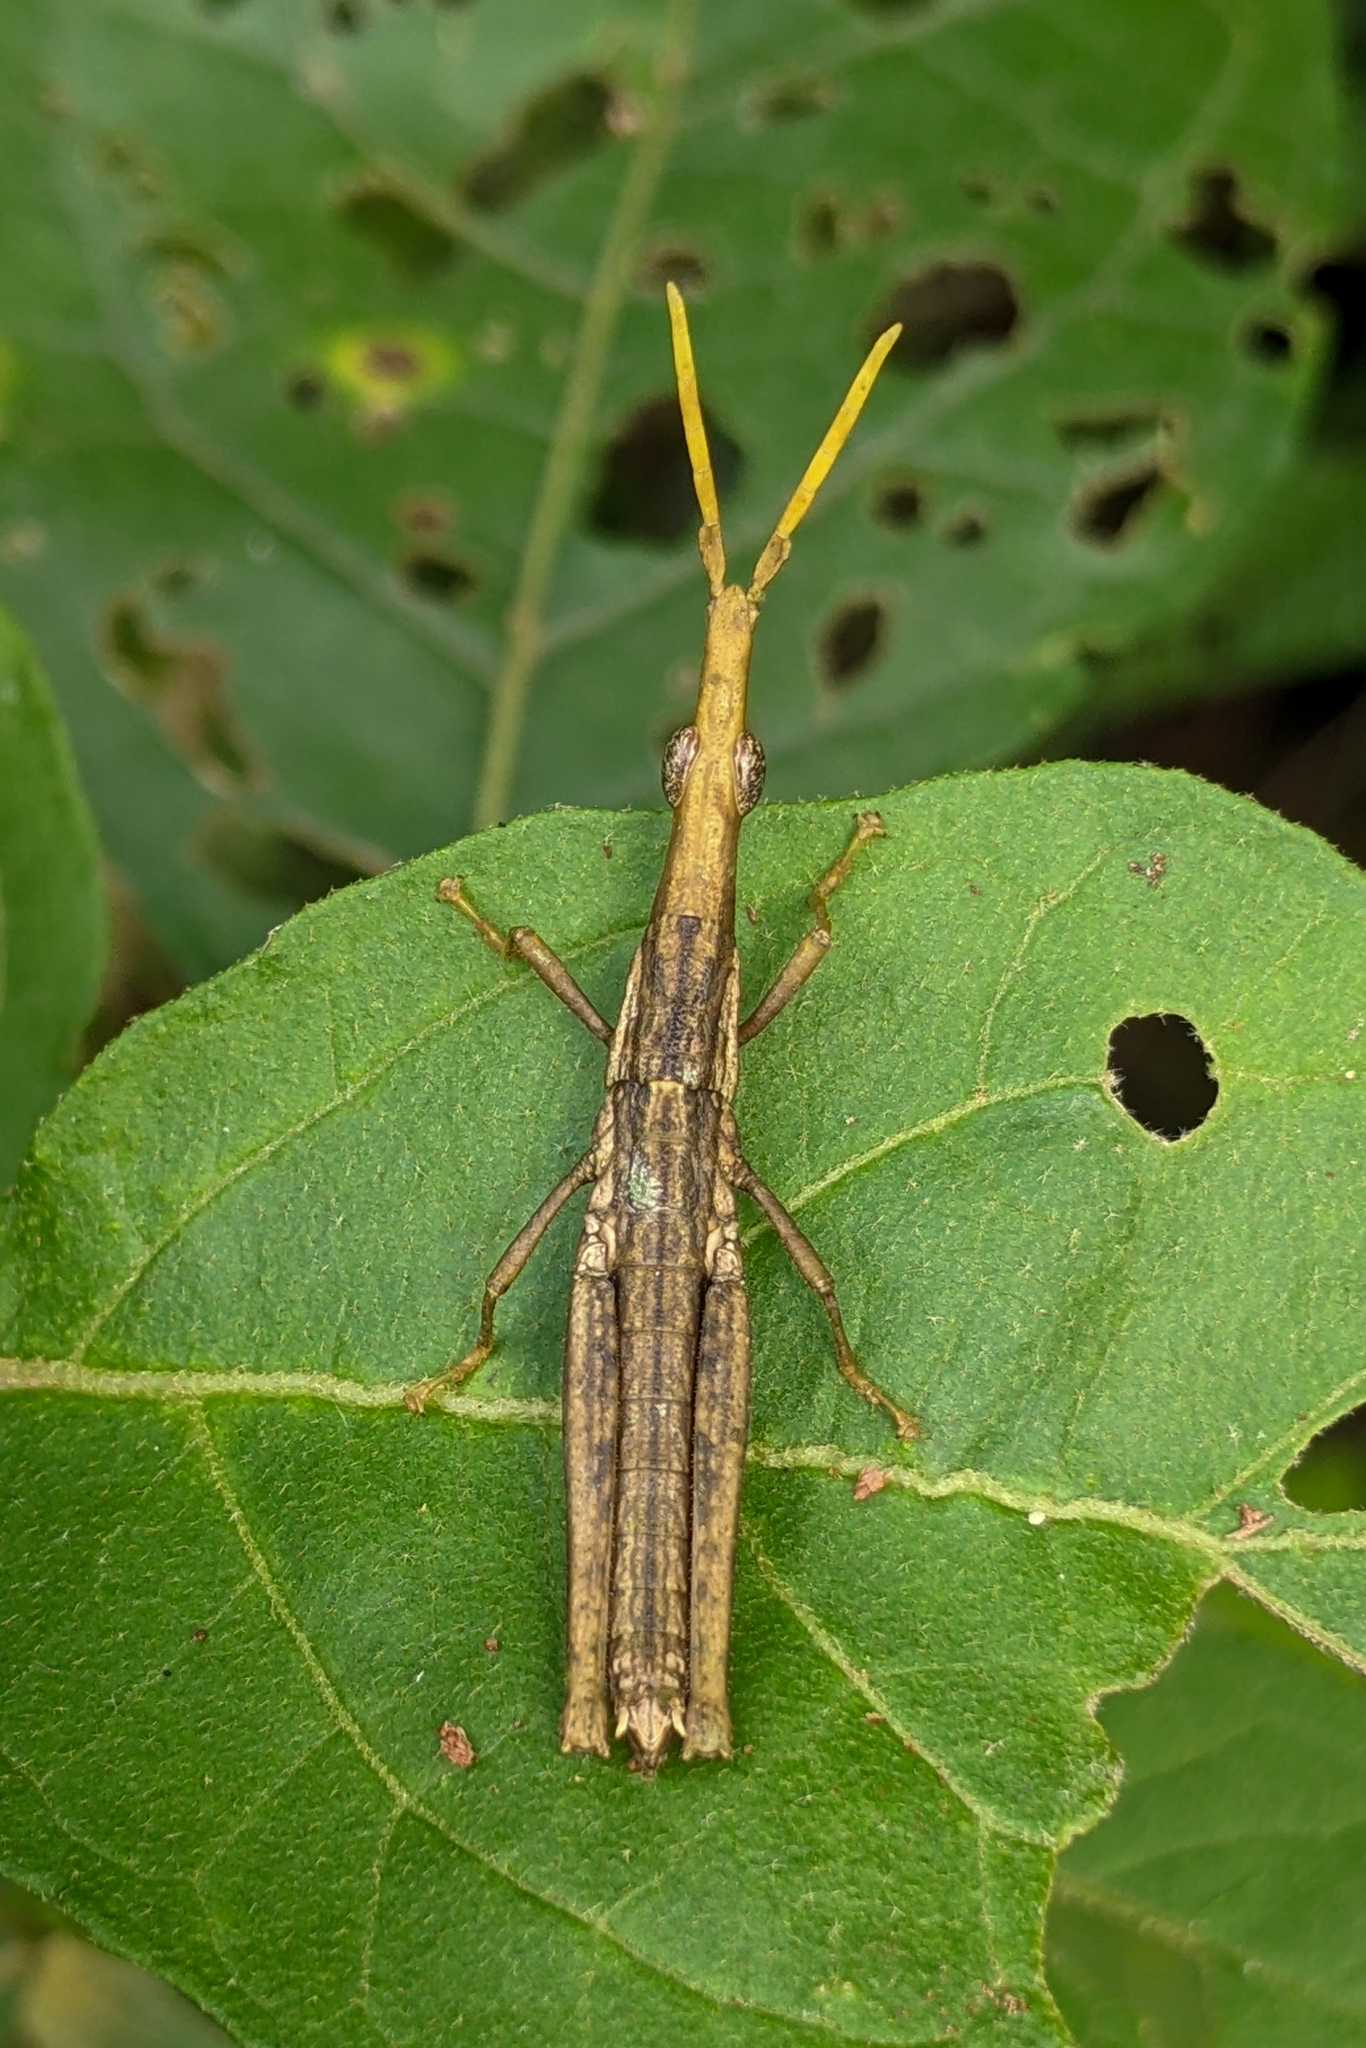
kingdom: Animalia
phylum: Arthropoda
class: Insecta
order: Orthoptera
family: Pyrgomorphidae
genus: Omura
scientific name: Omura congrua
